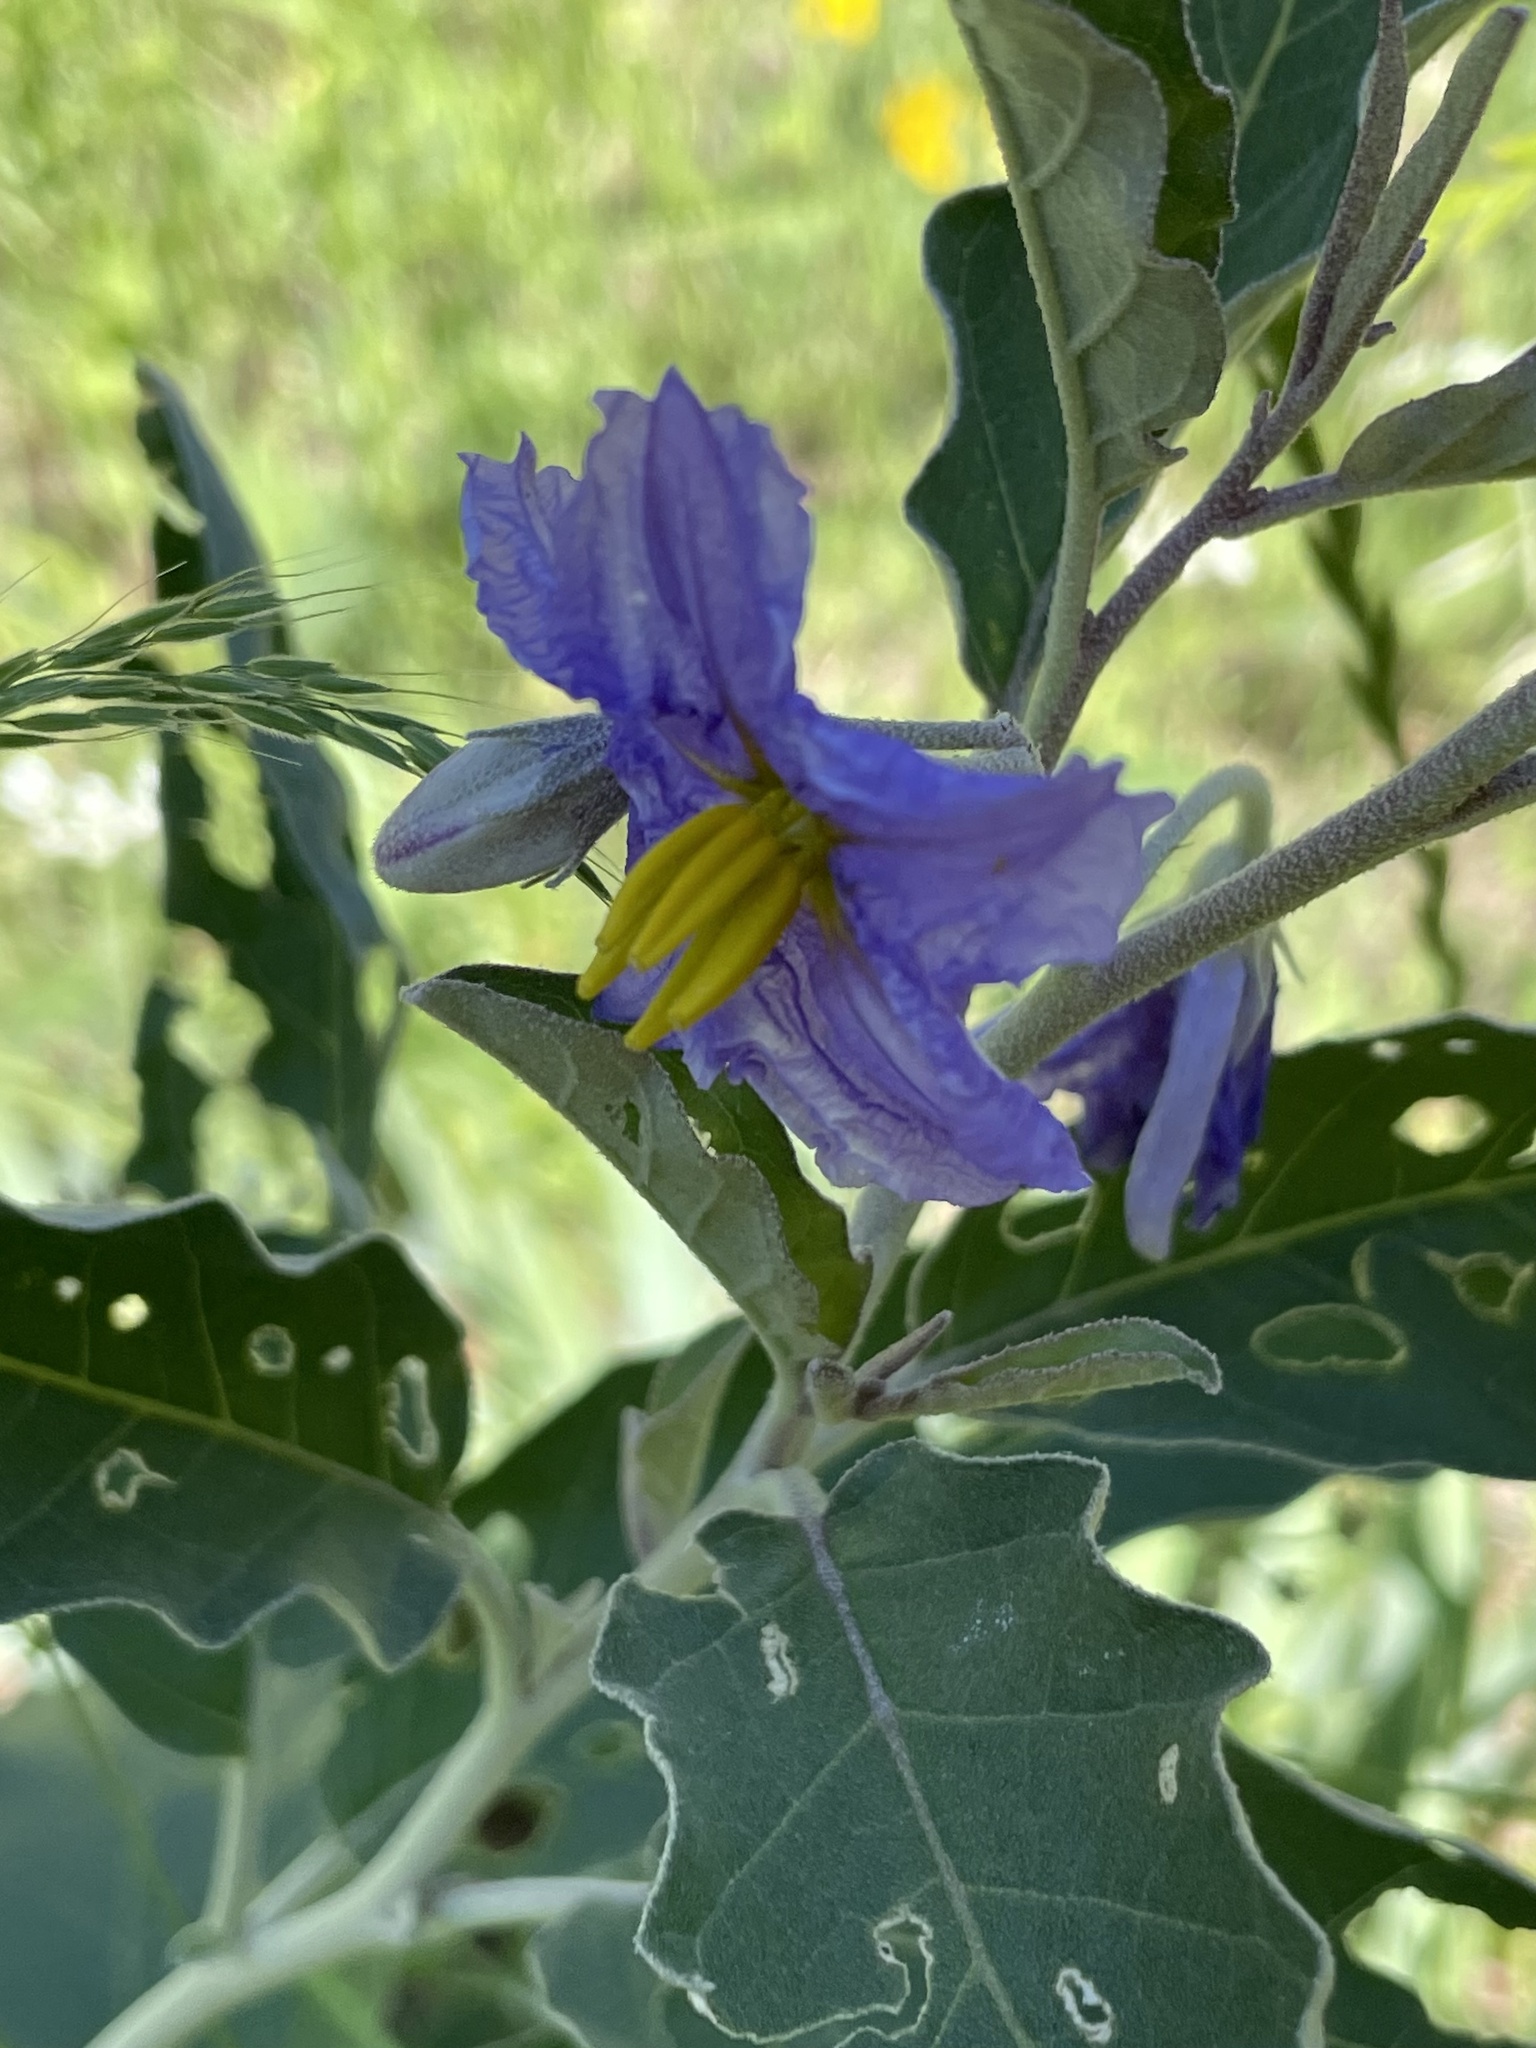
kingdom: Plantae
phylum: Tracheophyta
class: Magnoliopsida
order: Solanales
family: Solanaceae
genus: Solanum
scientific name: Solanum elaeagnifolium
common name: Silverleaf nightshade
